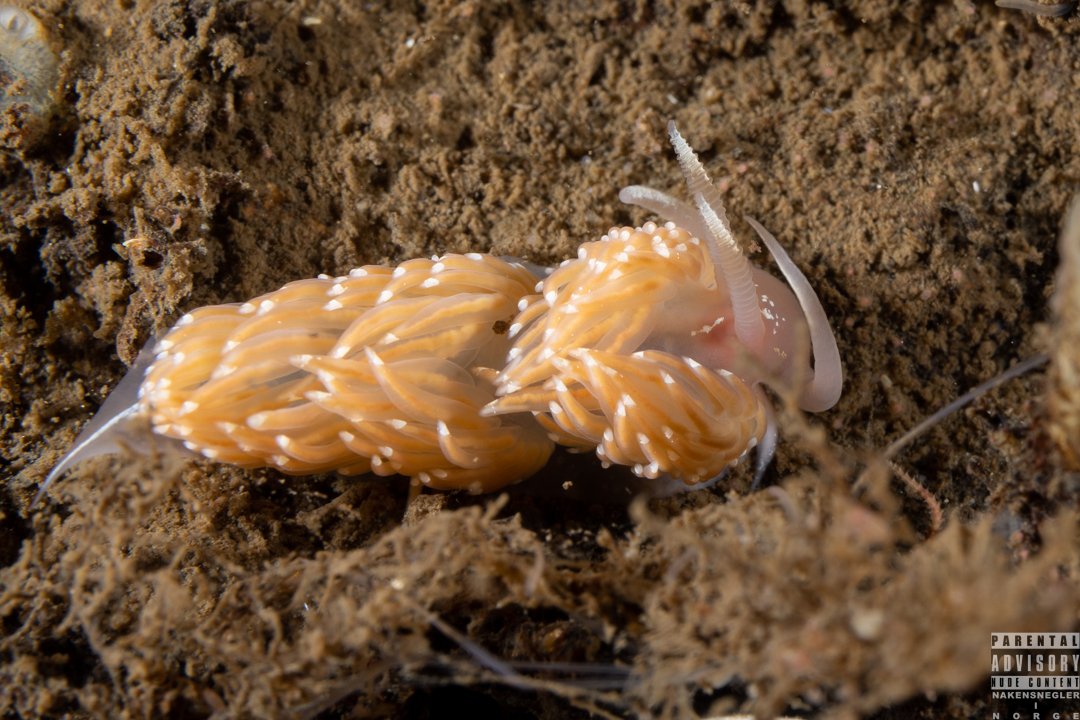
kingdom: Animalia
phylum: Mollusca
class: Gastropoda
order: Nudibranchia
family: Facelinidae
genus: Facelina
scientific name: Facelina bostoniensis
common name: Boston facelina
